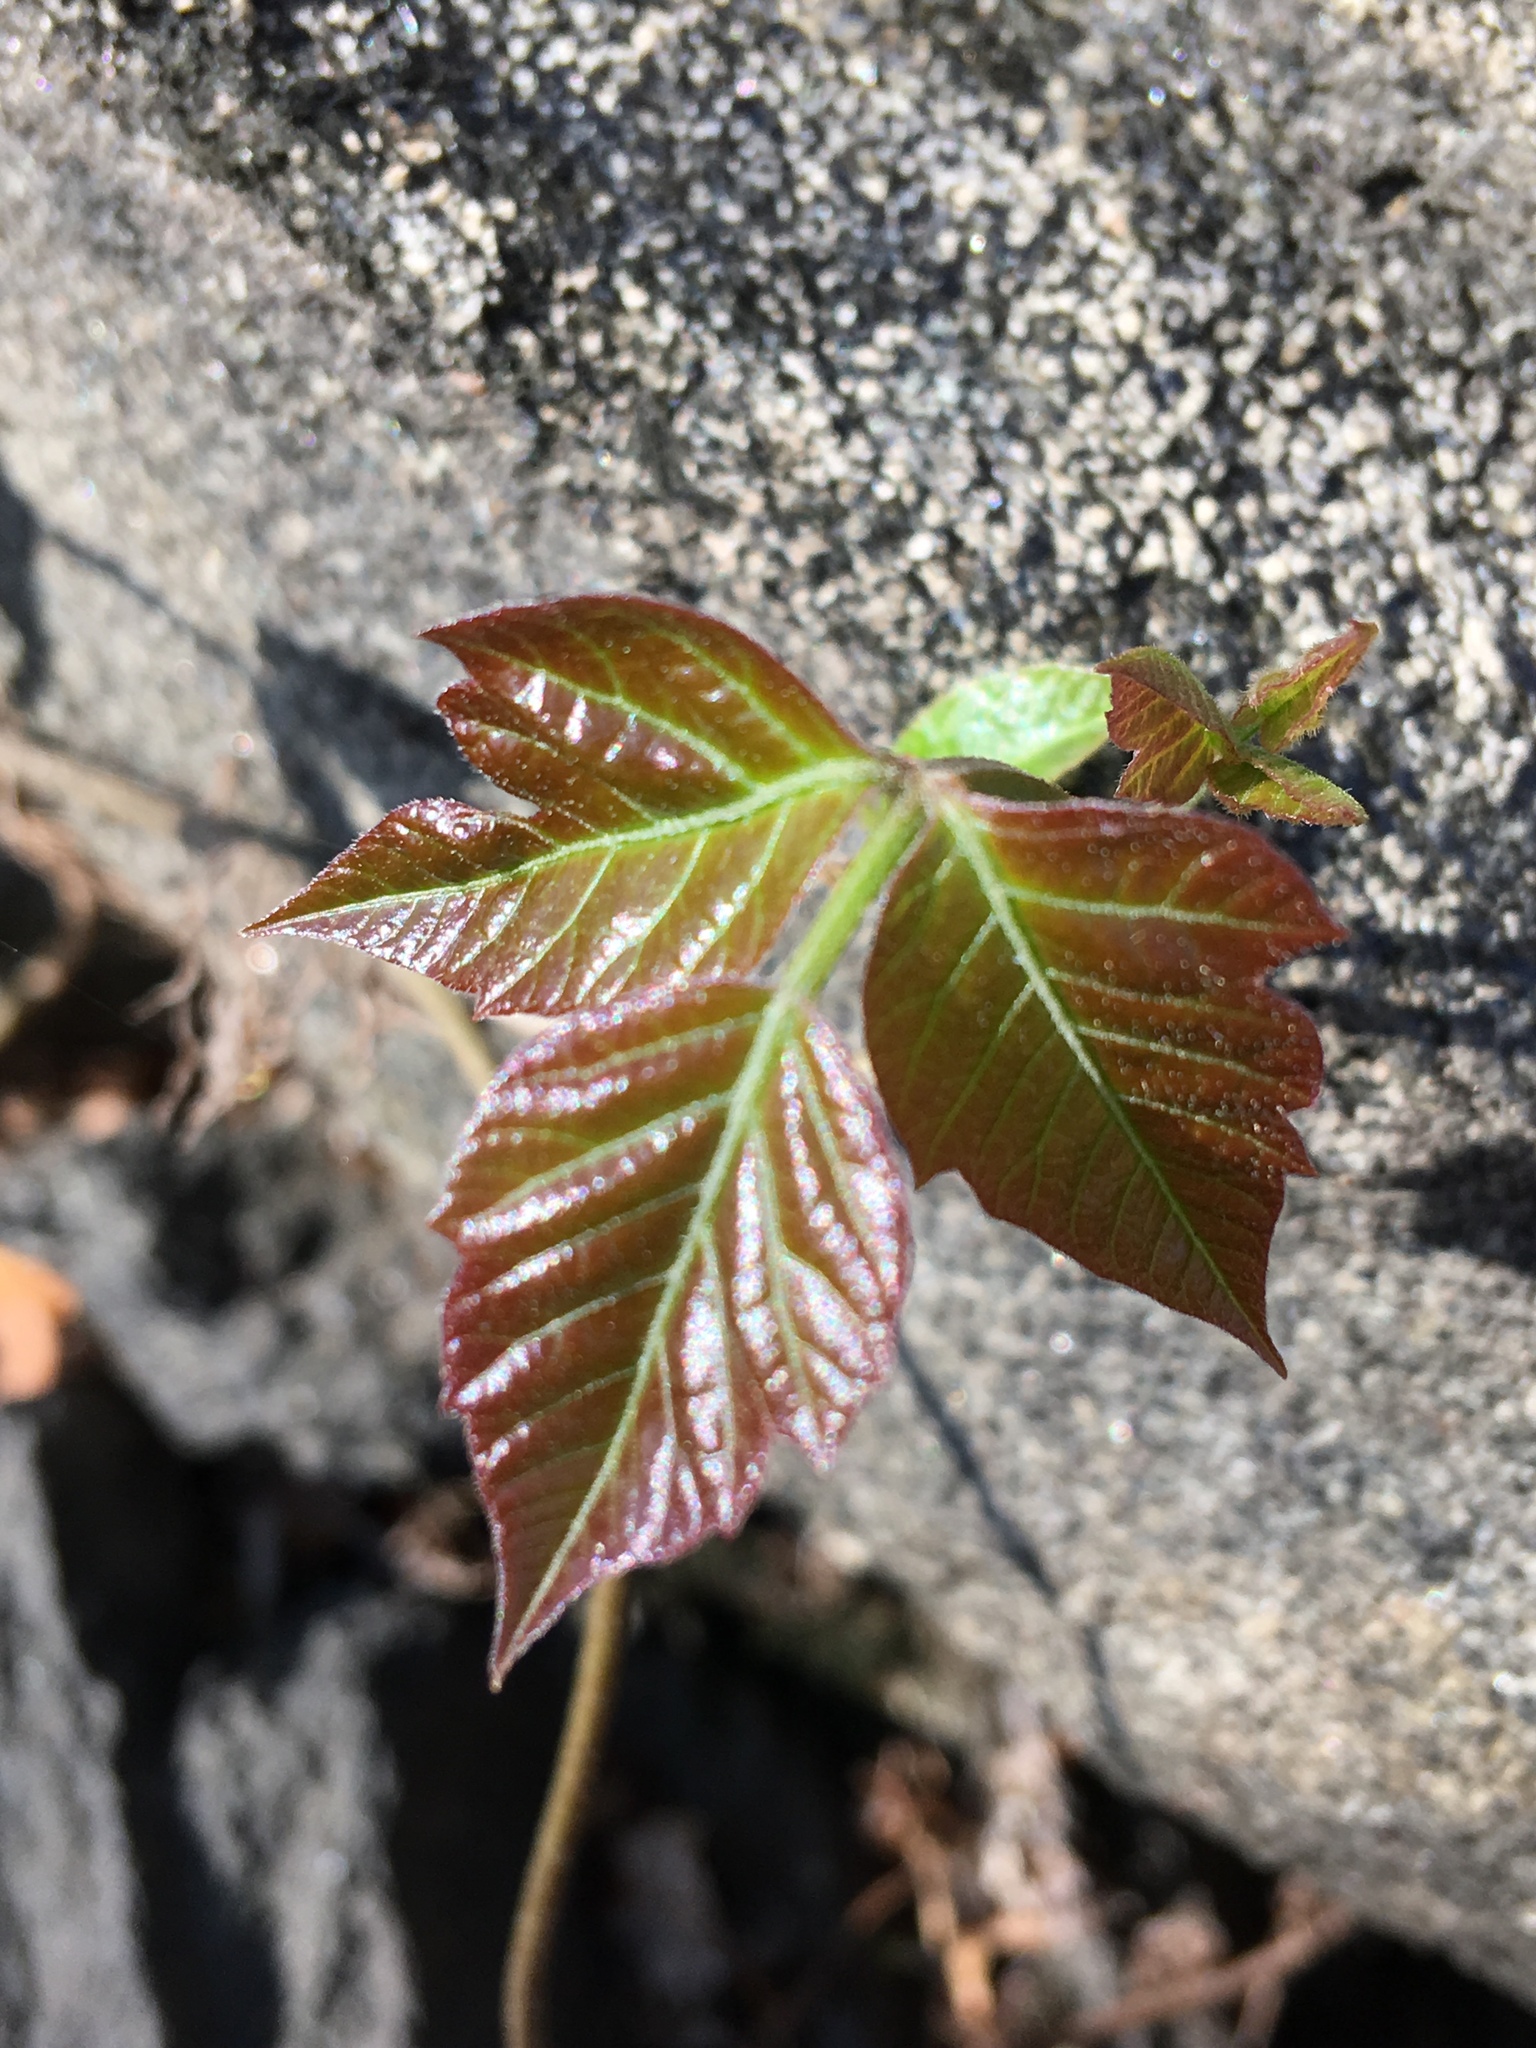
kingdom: Plantae
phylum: Tracheophyta
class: Magnoliopsida
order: Sapindales
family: Anacardiaceae
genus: Toxicodendron
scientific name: Toxicodendron radicans
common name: Poison ivy
